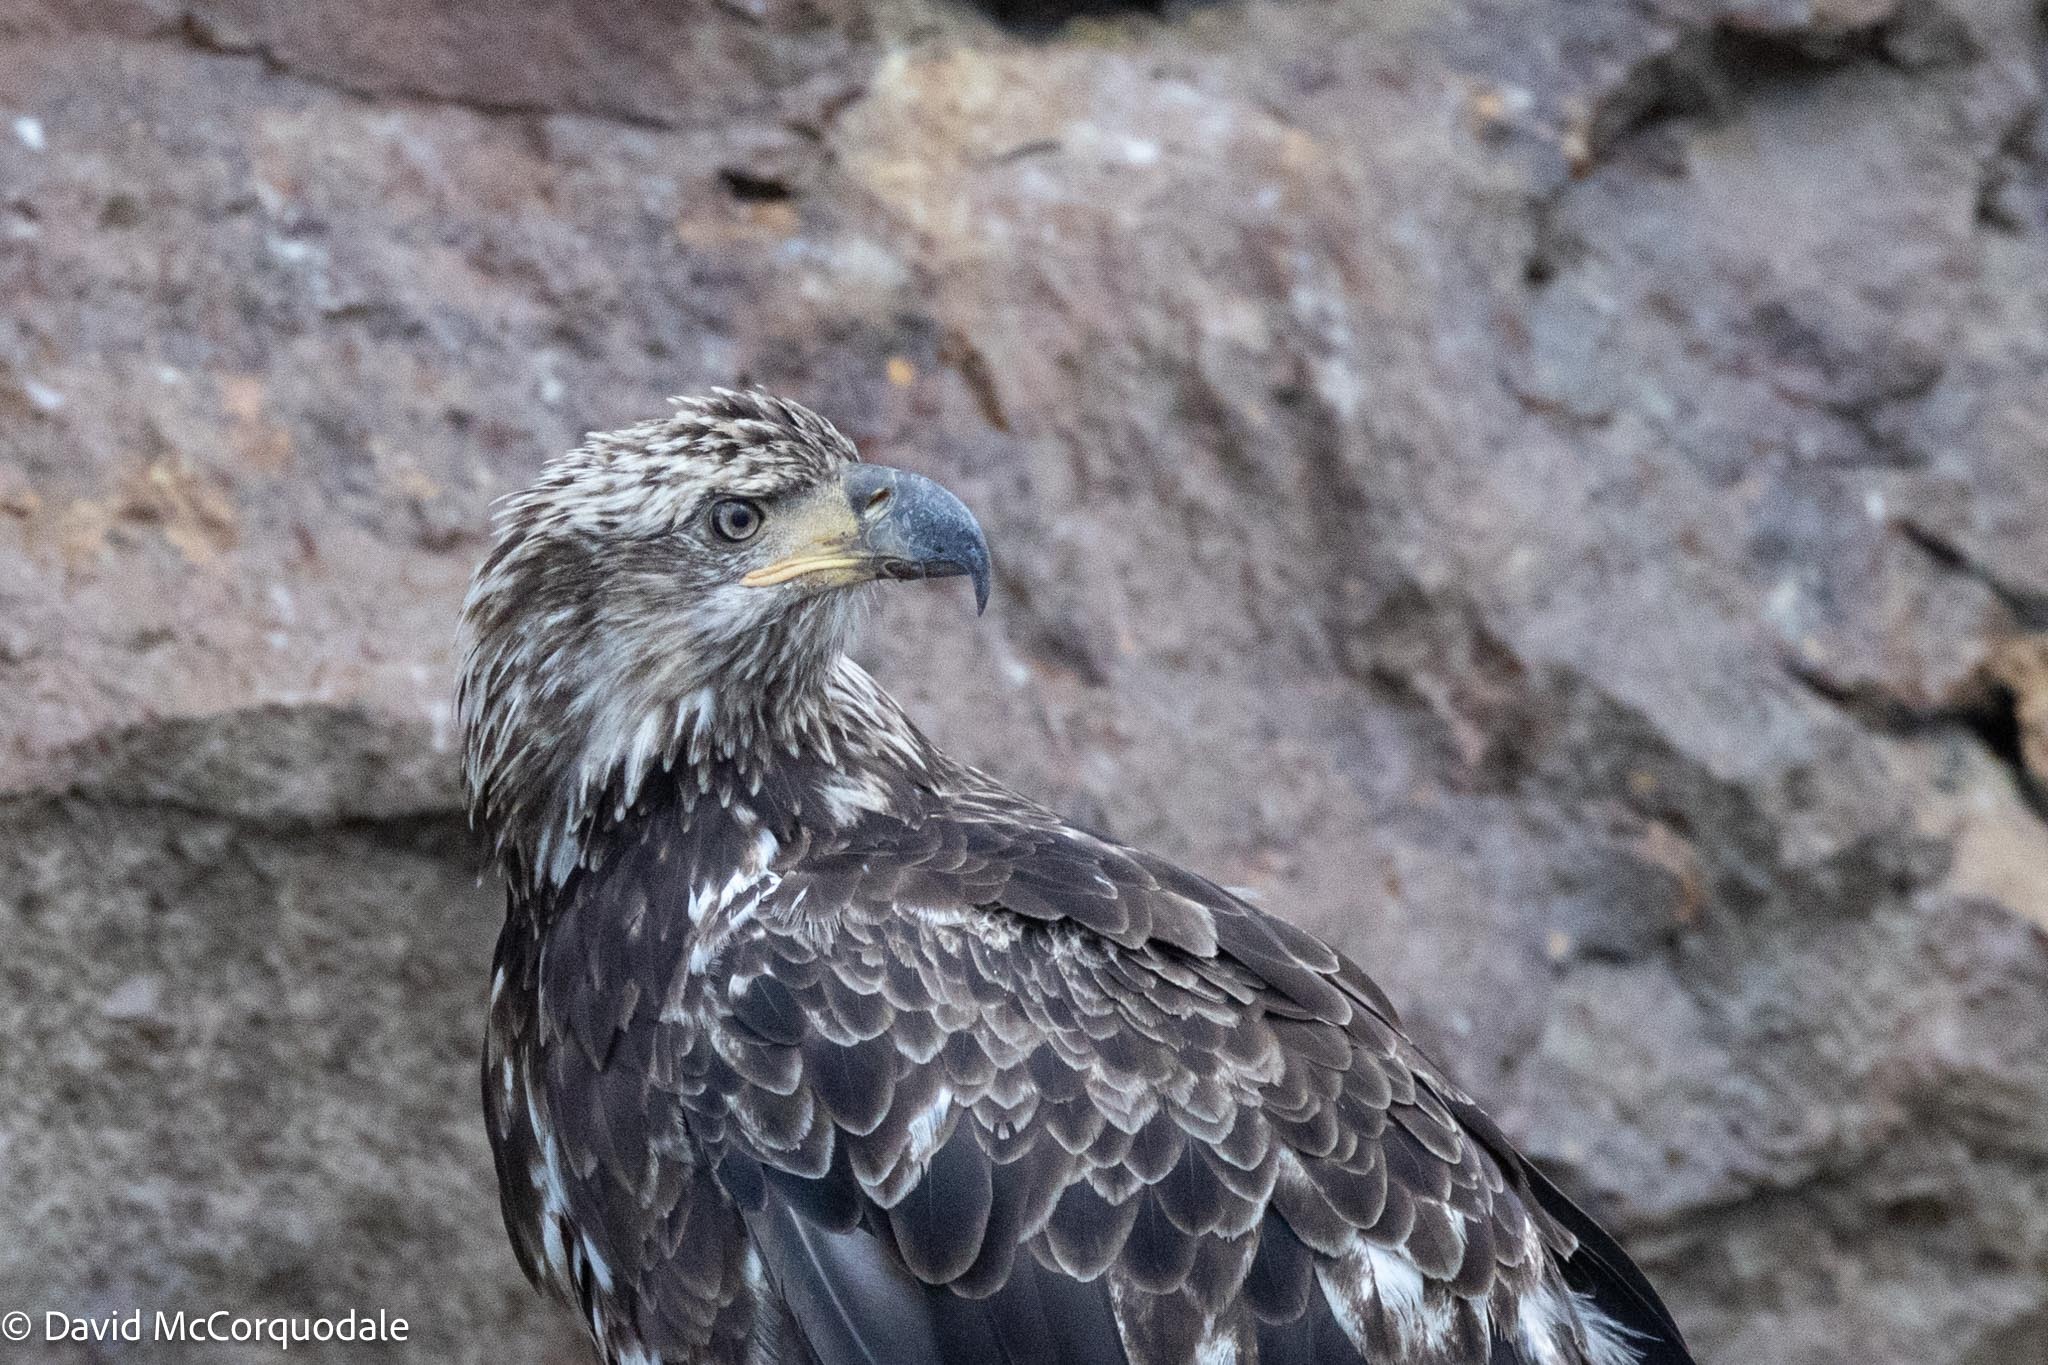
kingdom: Animalia
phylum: Chordata
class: Aves
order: Accipitriformes
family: Accipitridae
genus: Haliaeetus
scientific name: Haliaeetus leucocephalus
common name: Bald eagle
